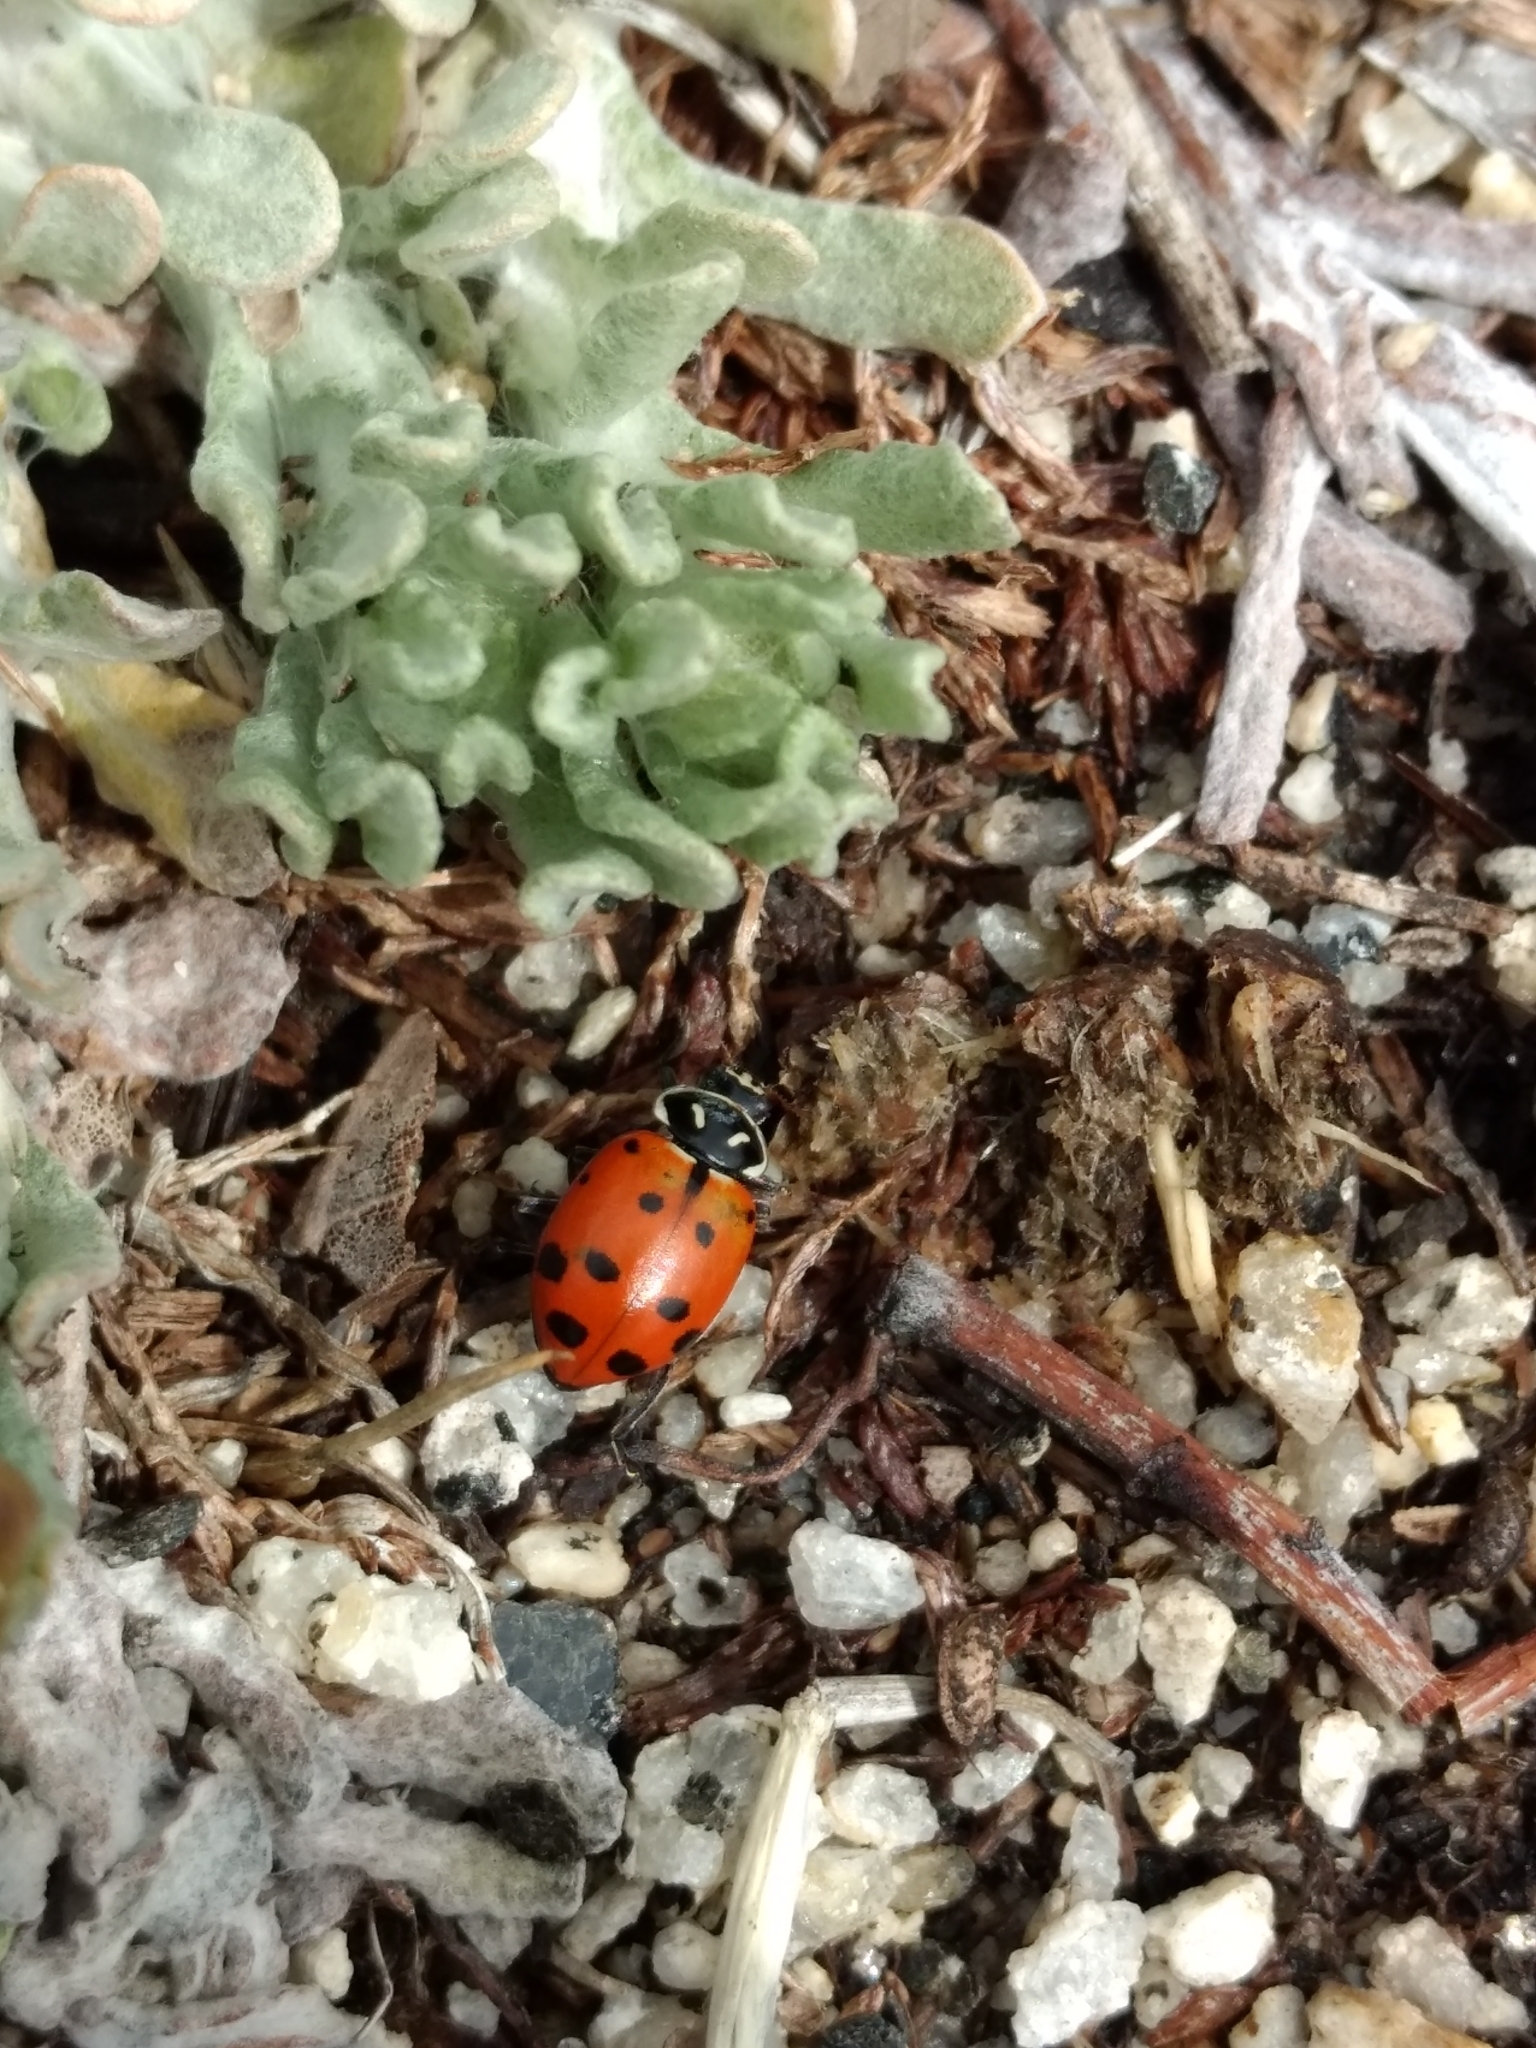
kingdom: Animalia
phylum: Arthropoda
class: Insecta
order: Coleoptera
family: Coccinellidae
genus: Hippodamia
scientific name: Hippodamia convergens
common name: Convergent lady beetle
